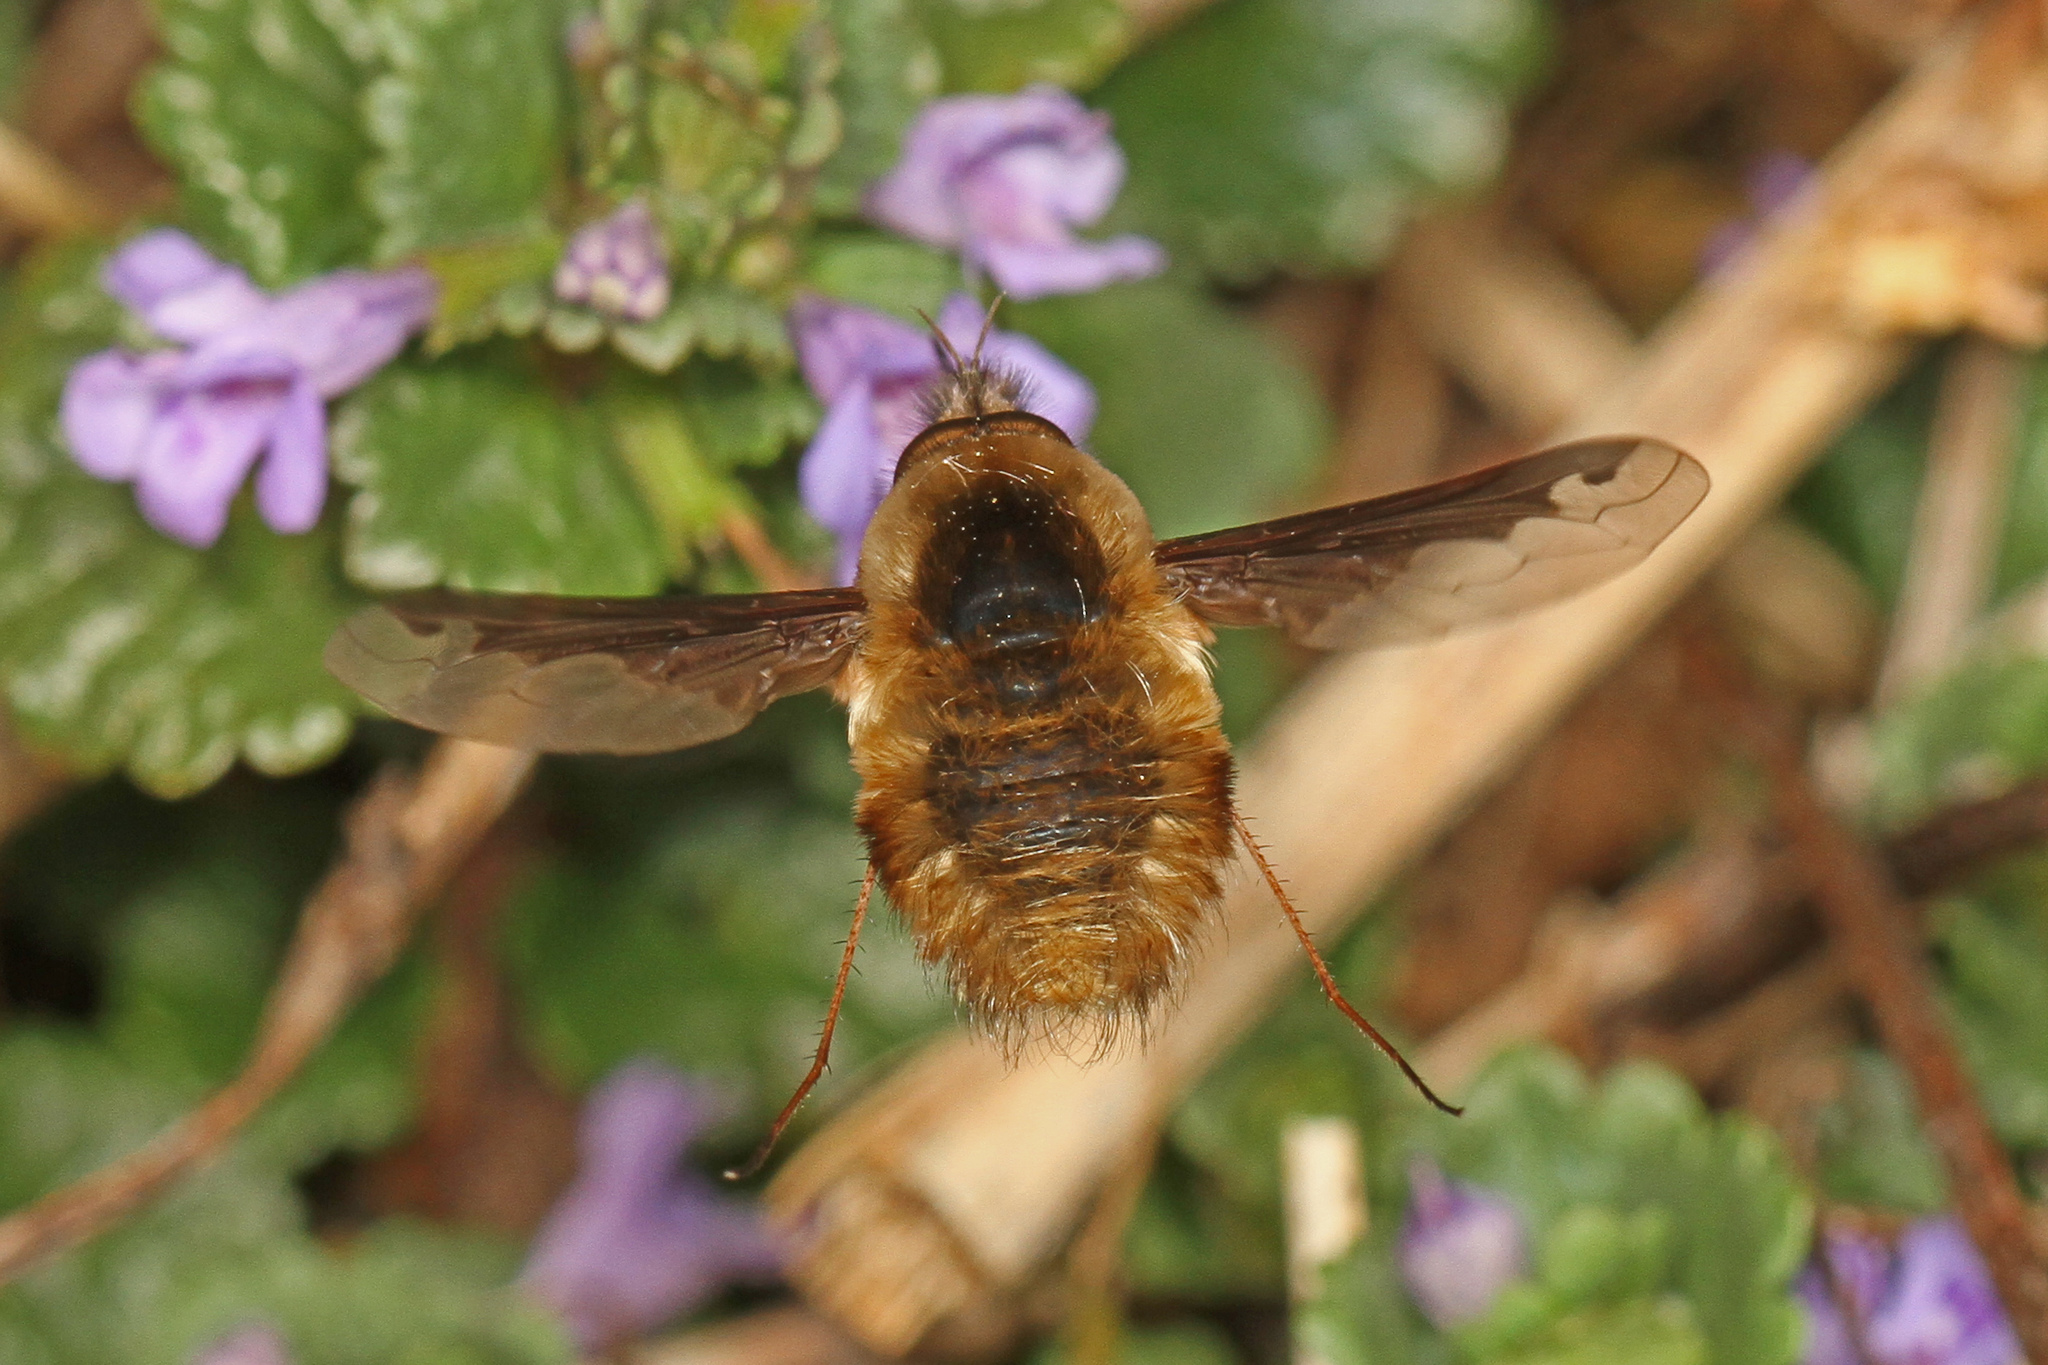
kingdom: Animalia
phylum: Arthropoda
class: Insecta
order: Diptera
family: Bombyliidae
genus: Bombylius
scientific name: Bombylius major
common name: Bee fly
